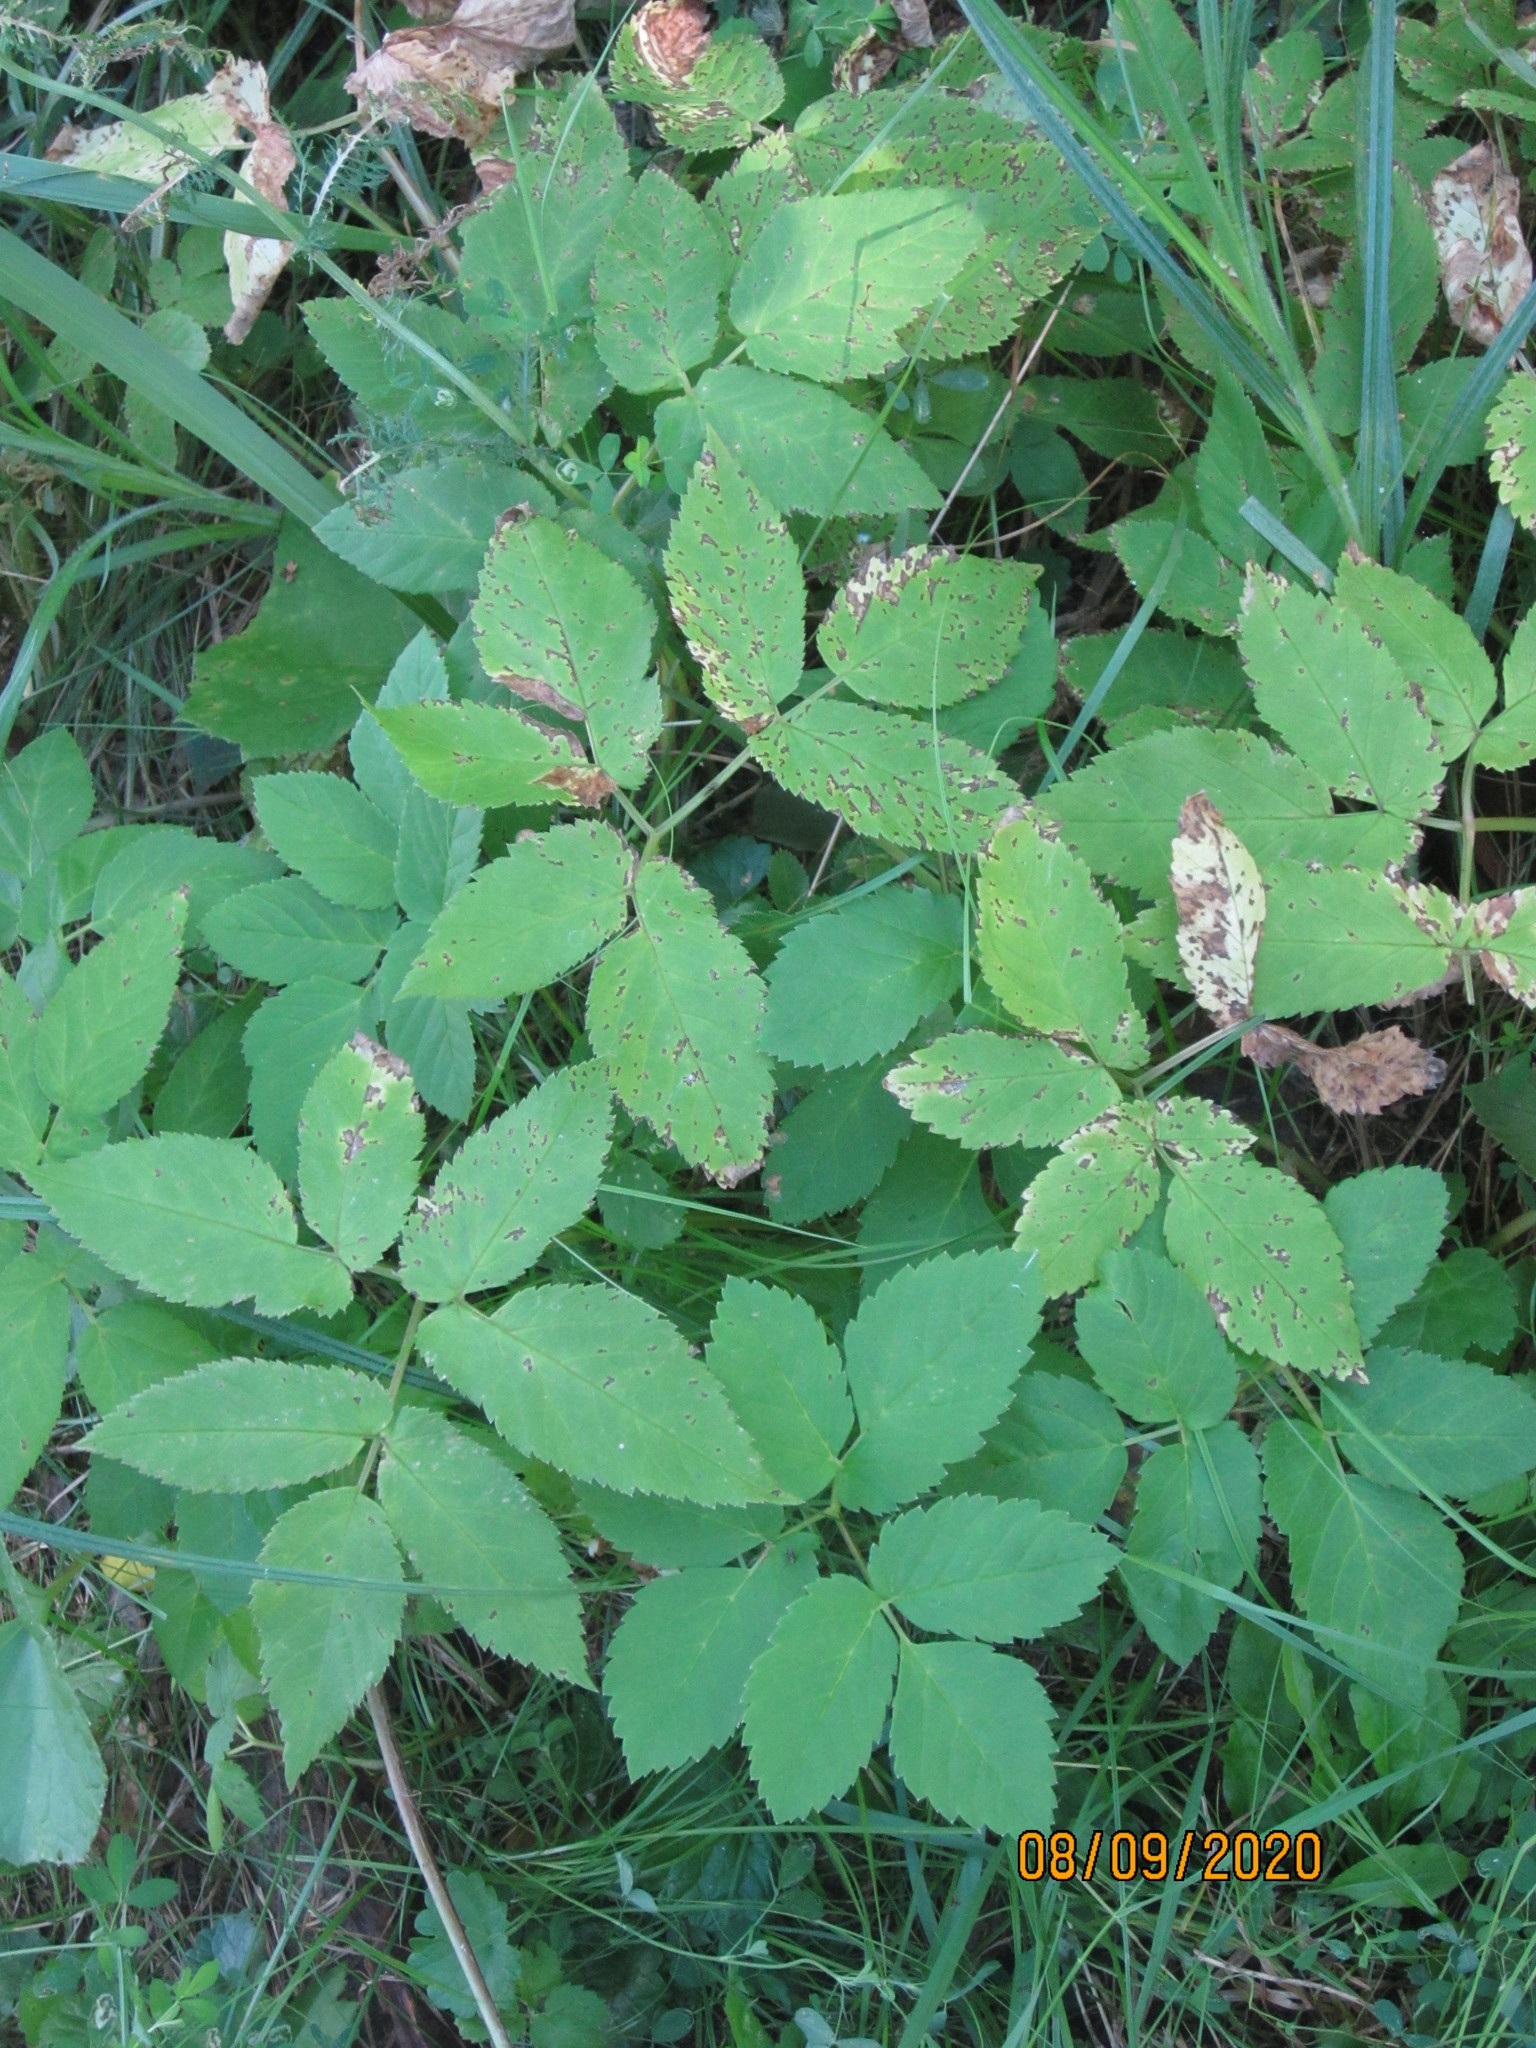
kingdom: Plantae
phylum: Tracheophyta
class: Magnoliopsida
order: Apiales
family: Apiaceae
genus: Aegopodium
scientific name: Aegopodium podagraria
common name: Ground-elder
